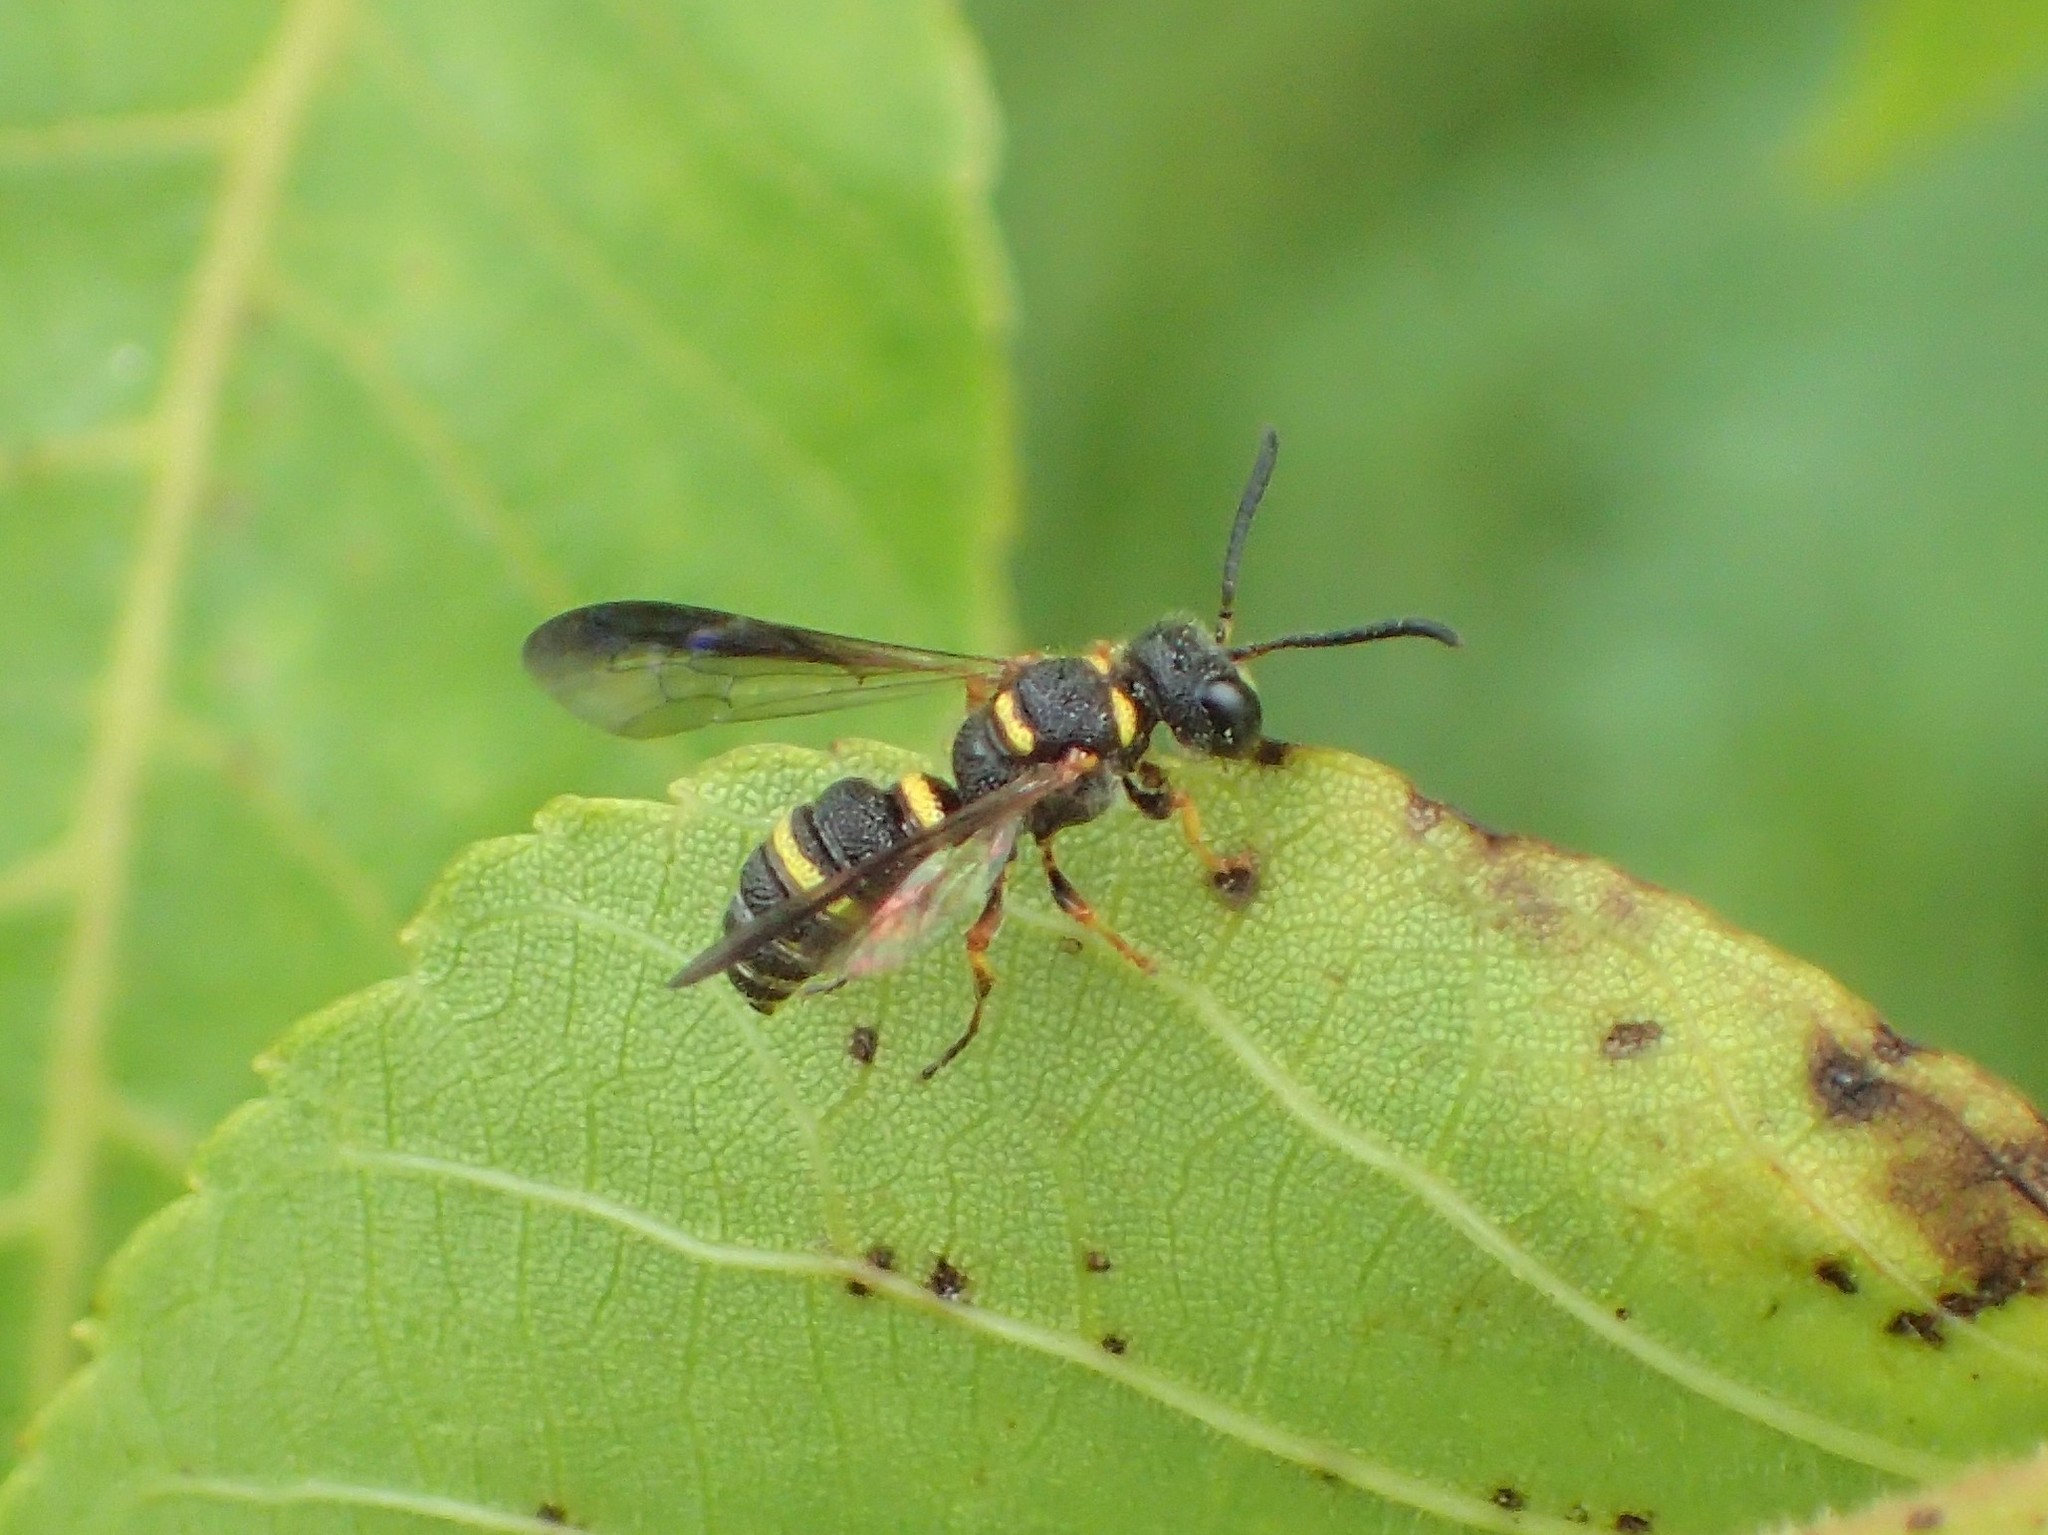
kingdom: Animalia
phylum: Arthropoda
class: Insecta
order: Hymenoptera
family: Crabronidae
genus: Cerceris
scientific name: Cerceris insolita
